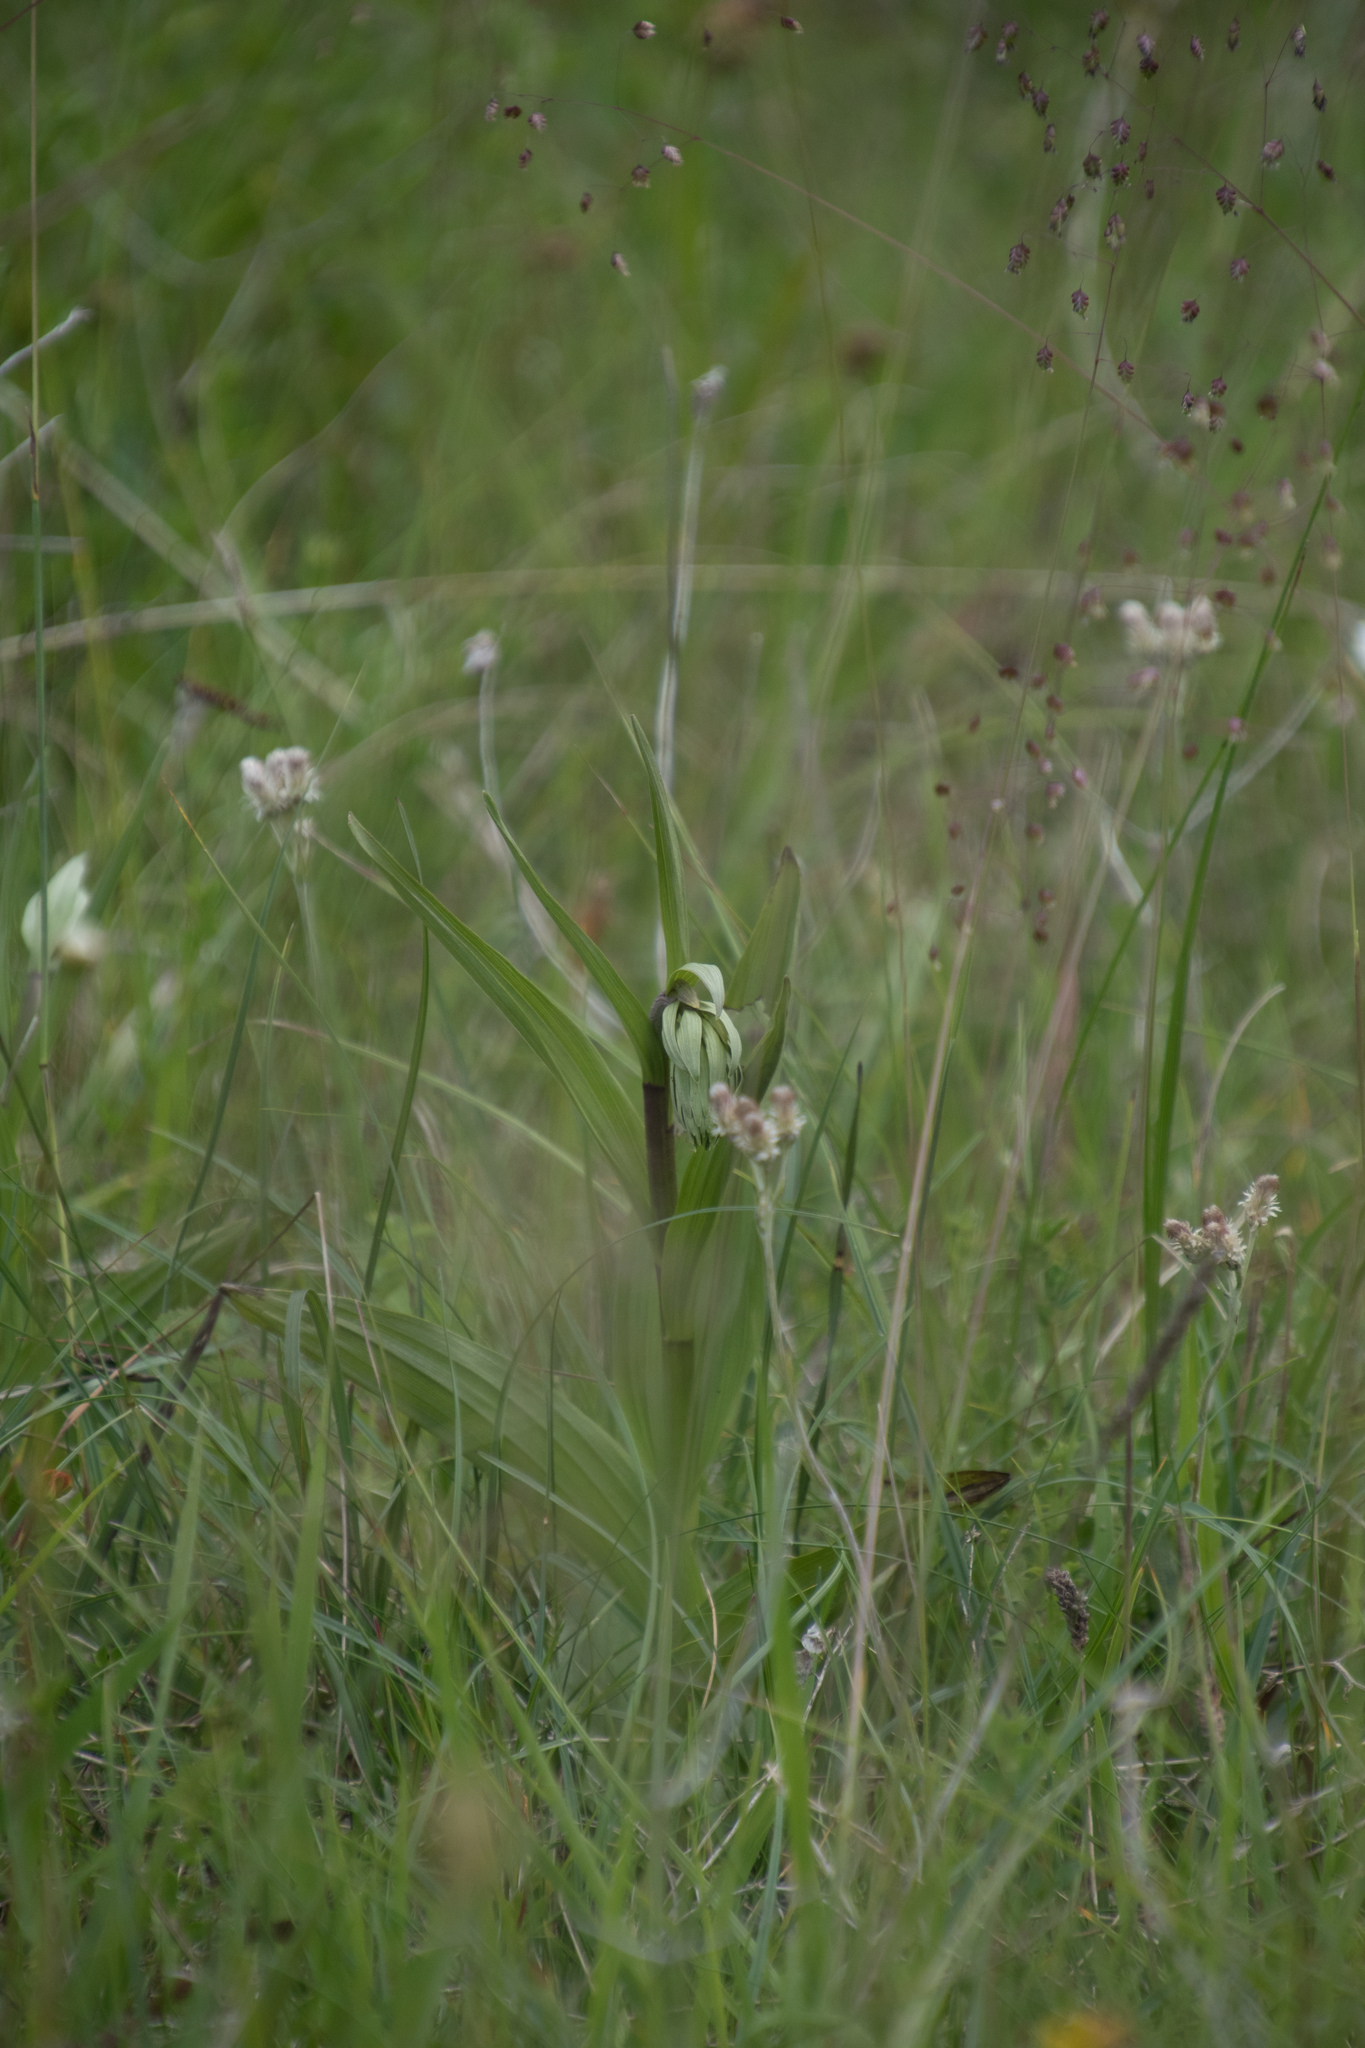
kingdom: Plantae
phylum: Tracheophyta
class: Liliopsida
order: Asparagales
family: Orchidaceae
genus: Epipactis
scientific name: Epipactis palustris
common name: Marsh helleborine
